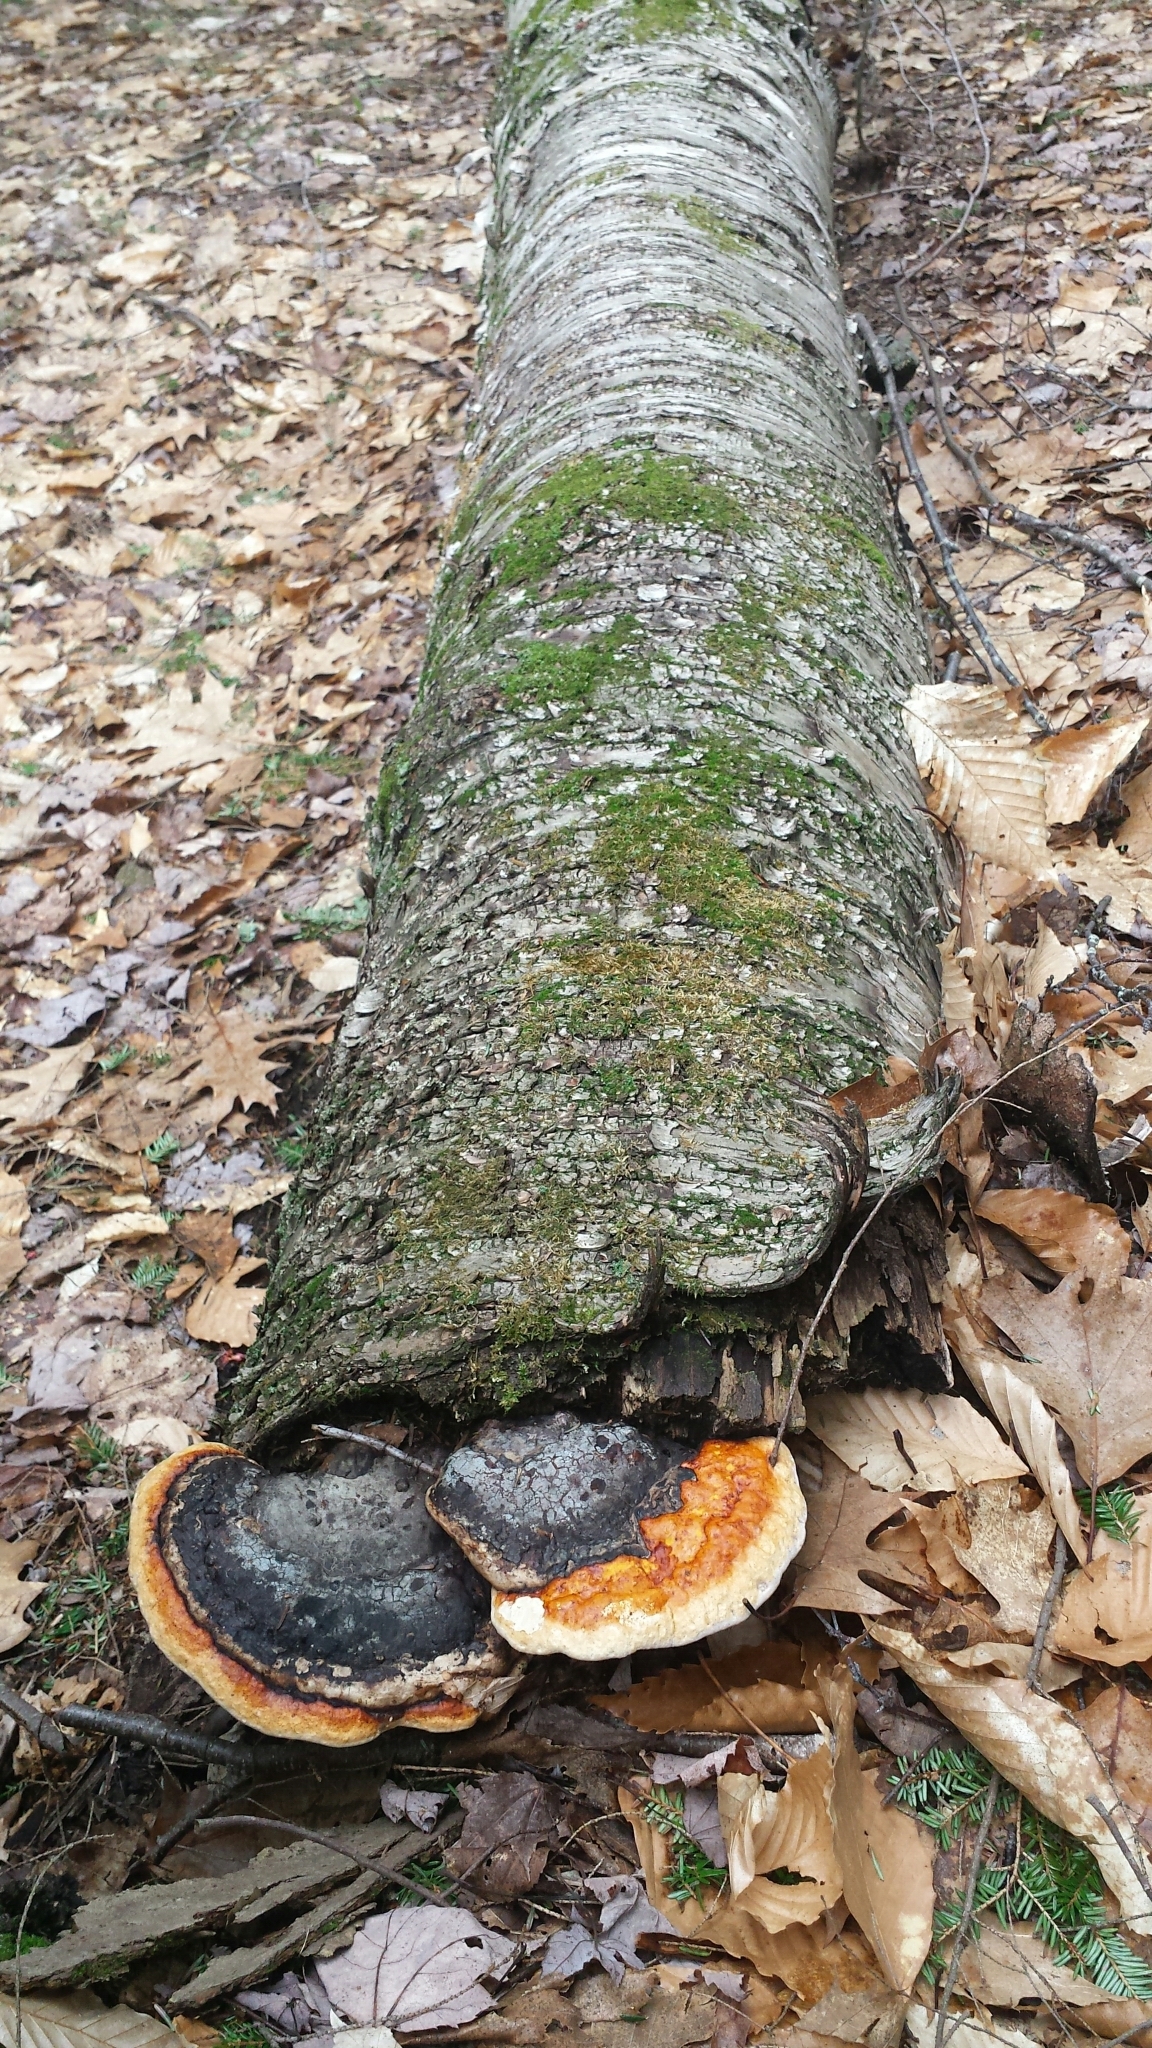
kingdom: Fungi
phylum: Basidiomycota
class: Agaricomycetes
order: Polyporales
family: Fomitopsidaceae
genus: Fomitopsis
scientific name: Fomitopsis mounceae
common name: Northern red belt
